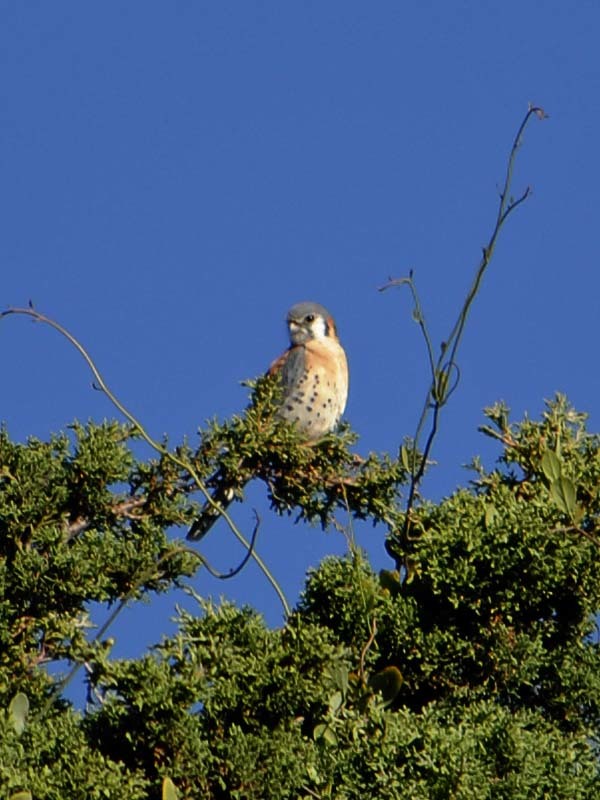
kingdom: Animalia
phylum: Chordata
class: Aves
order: Falconiformes
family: Falconidae
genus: Falco
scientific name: Falco sparverius
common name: American kestrel
